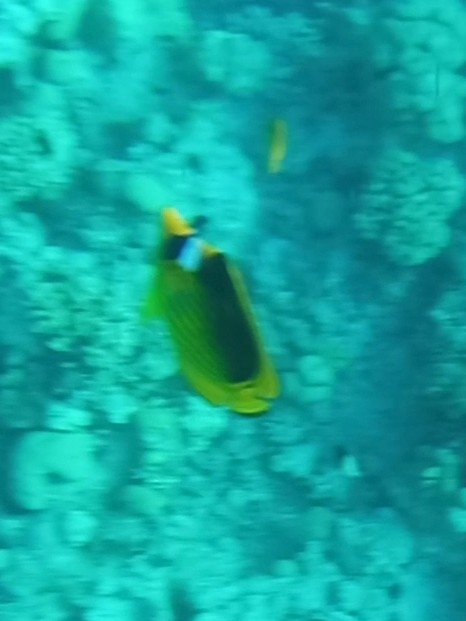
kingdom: Animalia
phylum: Chordata
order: Perciformes
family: Chaetodontidae
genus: Chaetodon
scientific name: Chaetodon fasciatus
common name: Diagonal butterflyfish
